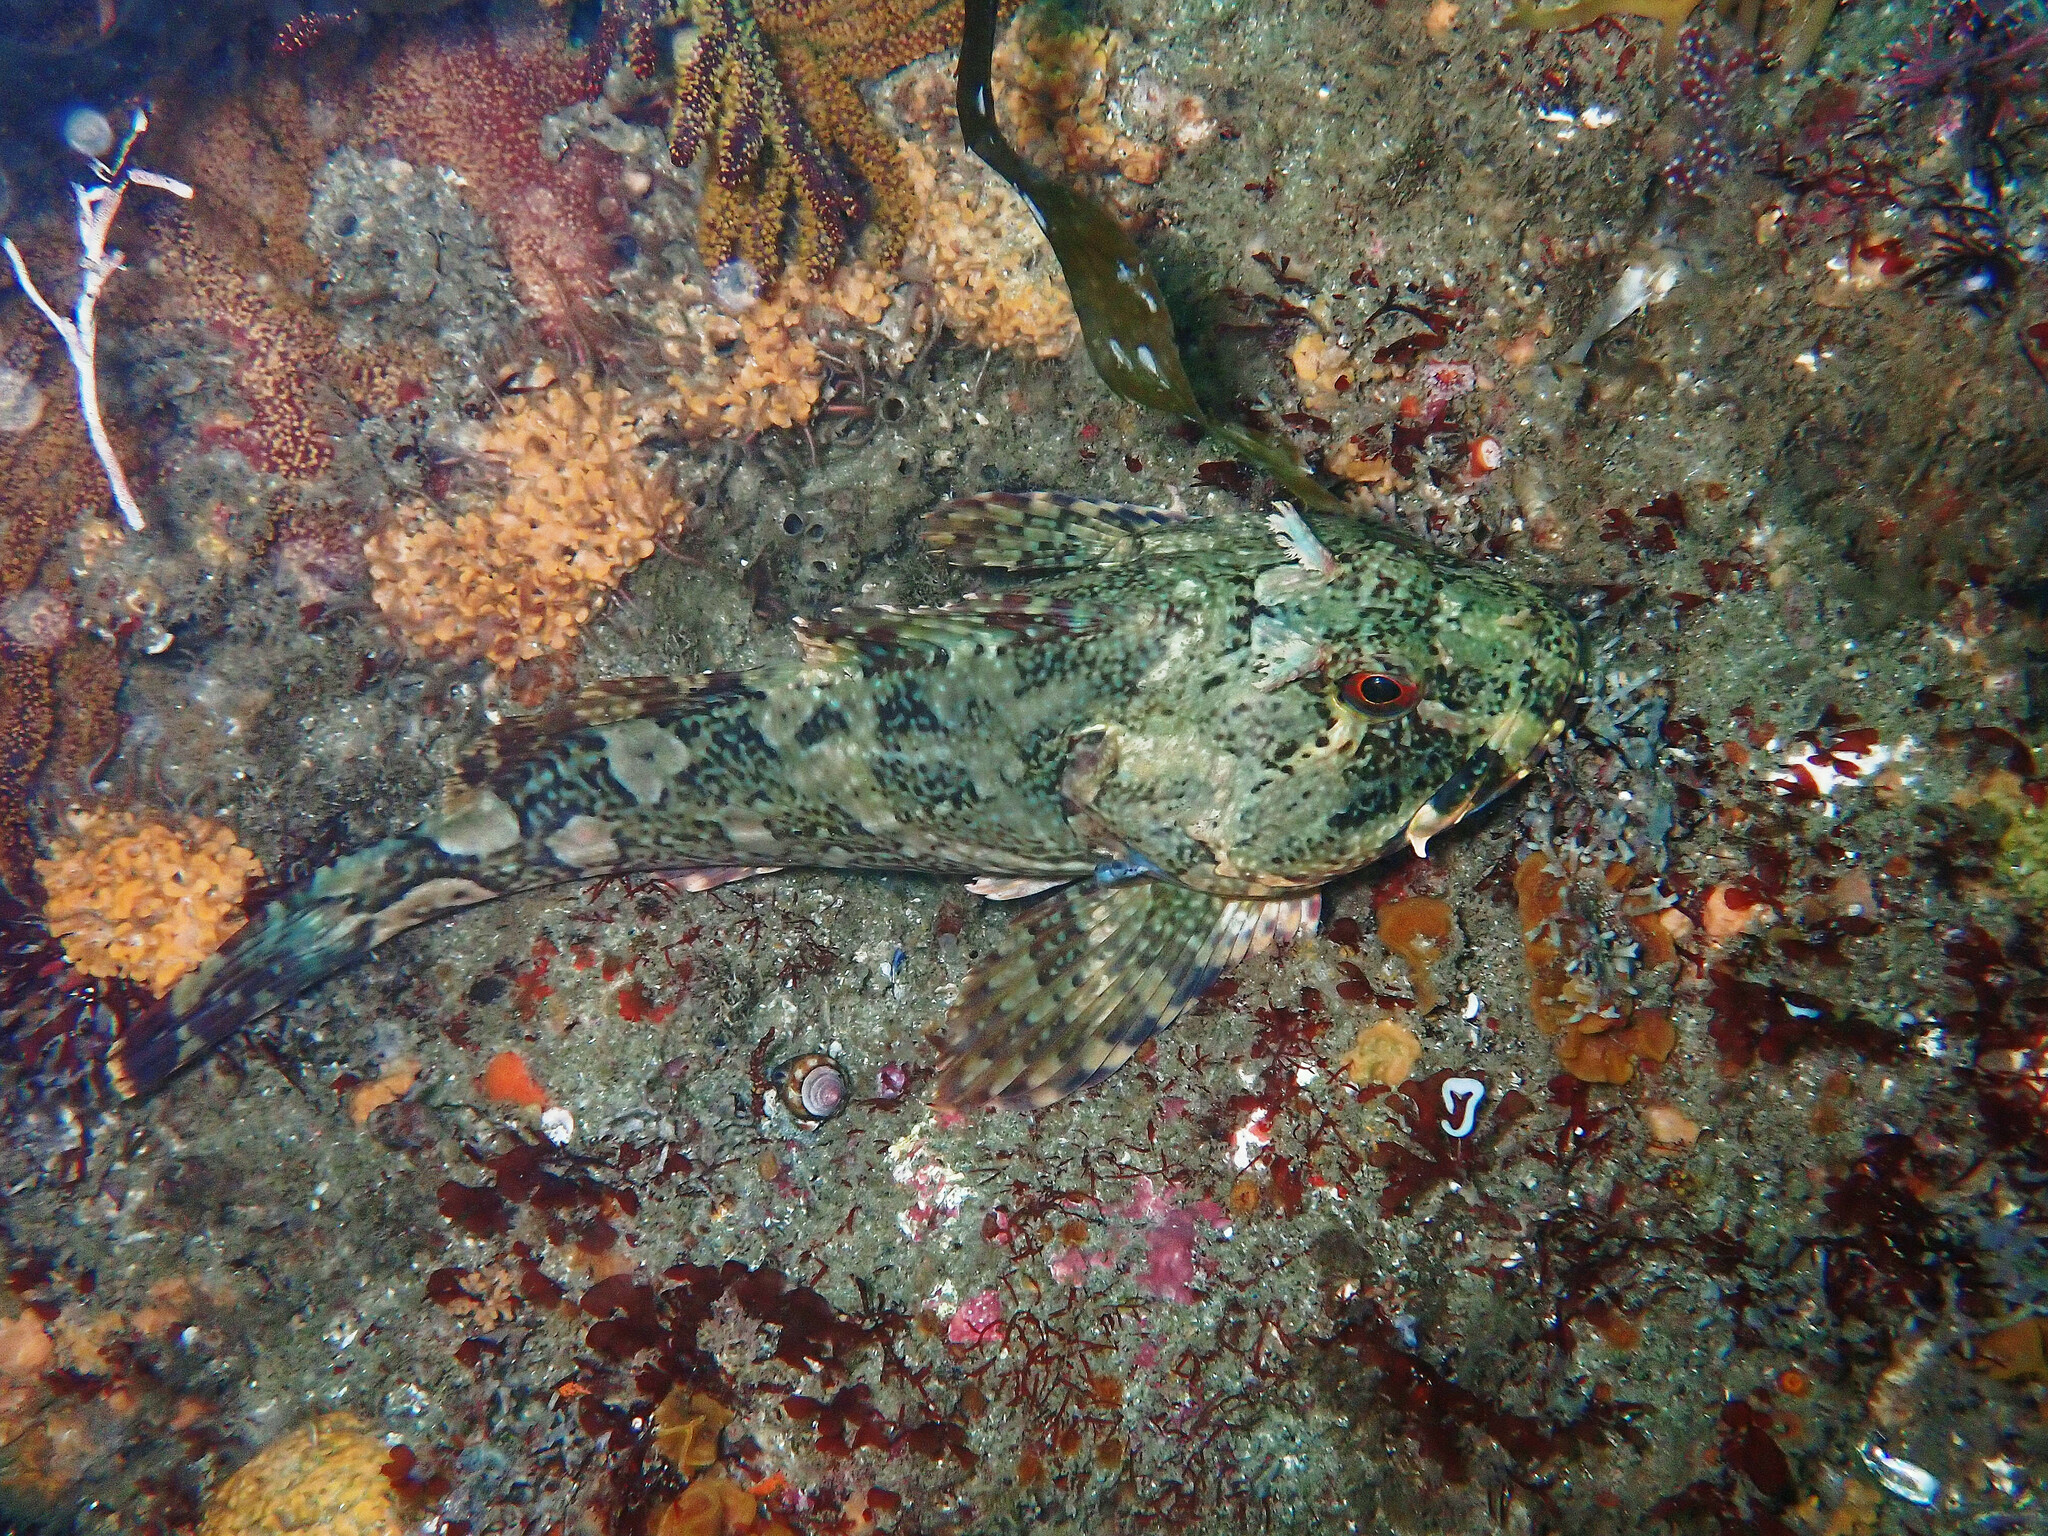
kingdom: Animalia
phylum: Chordata
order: Scorpaeniformes
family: Cottidae
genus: Scorpaenichthys
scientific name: Scorpaenichthys marmoratus
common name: Cabezon
